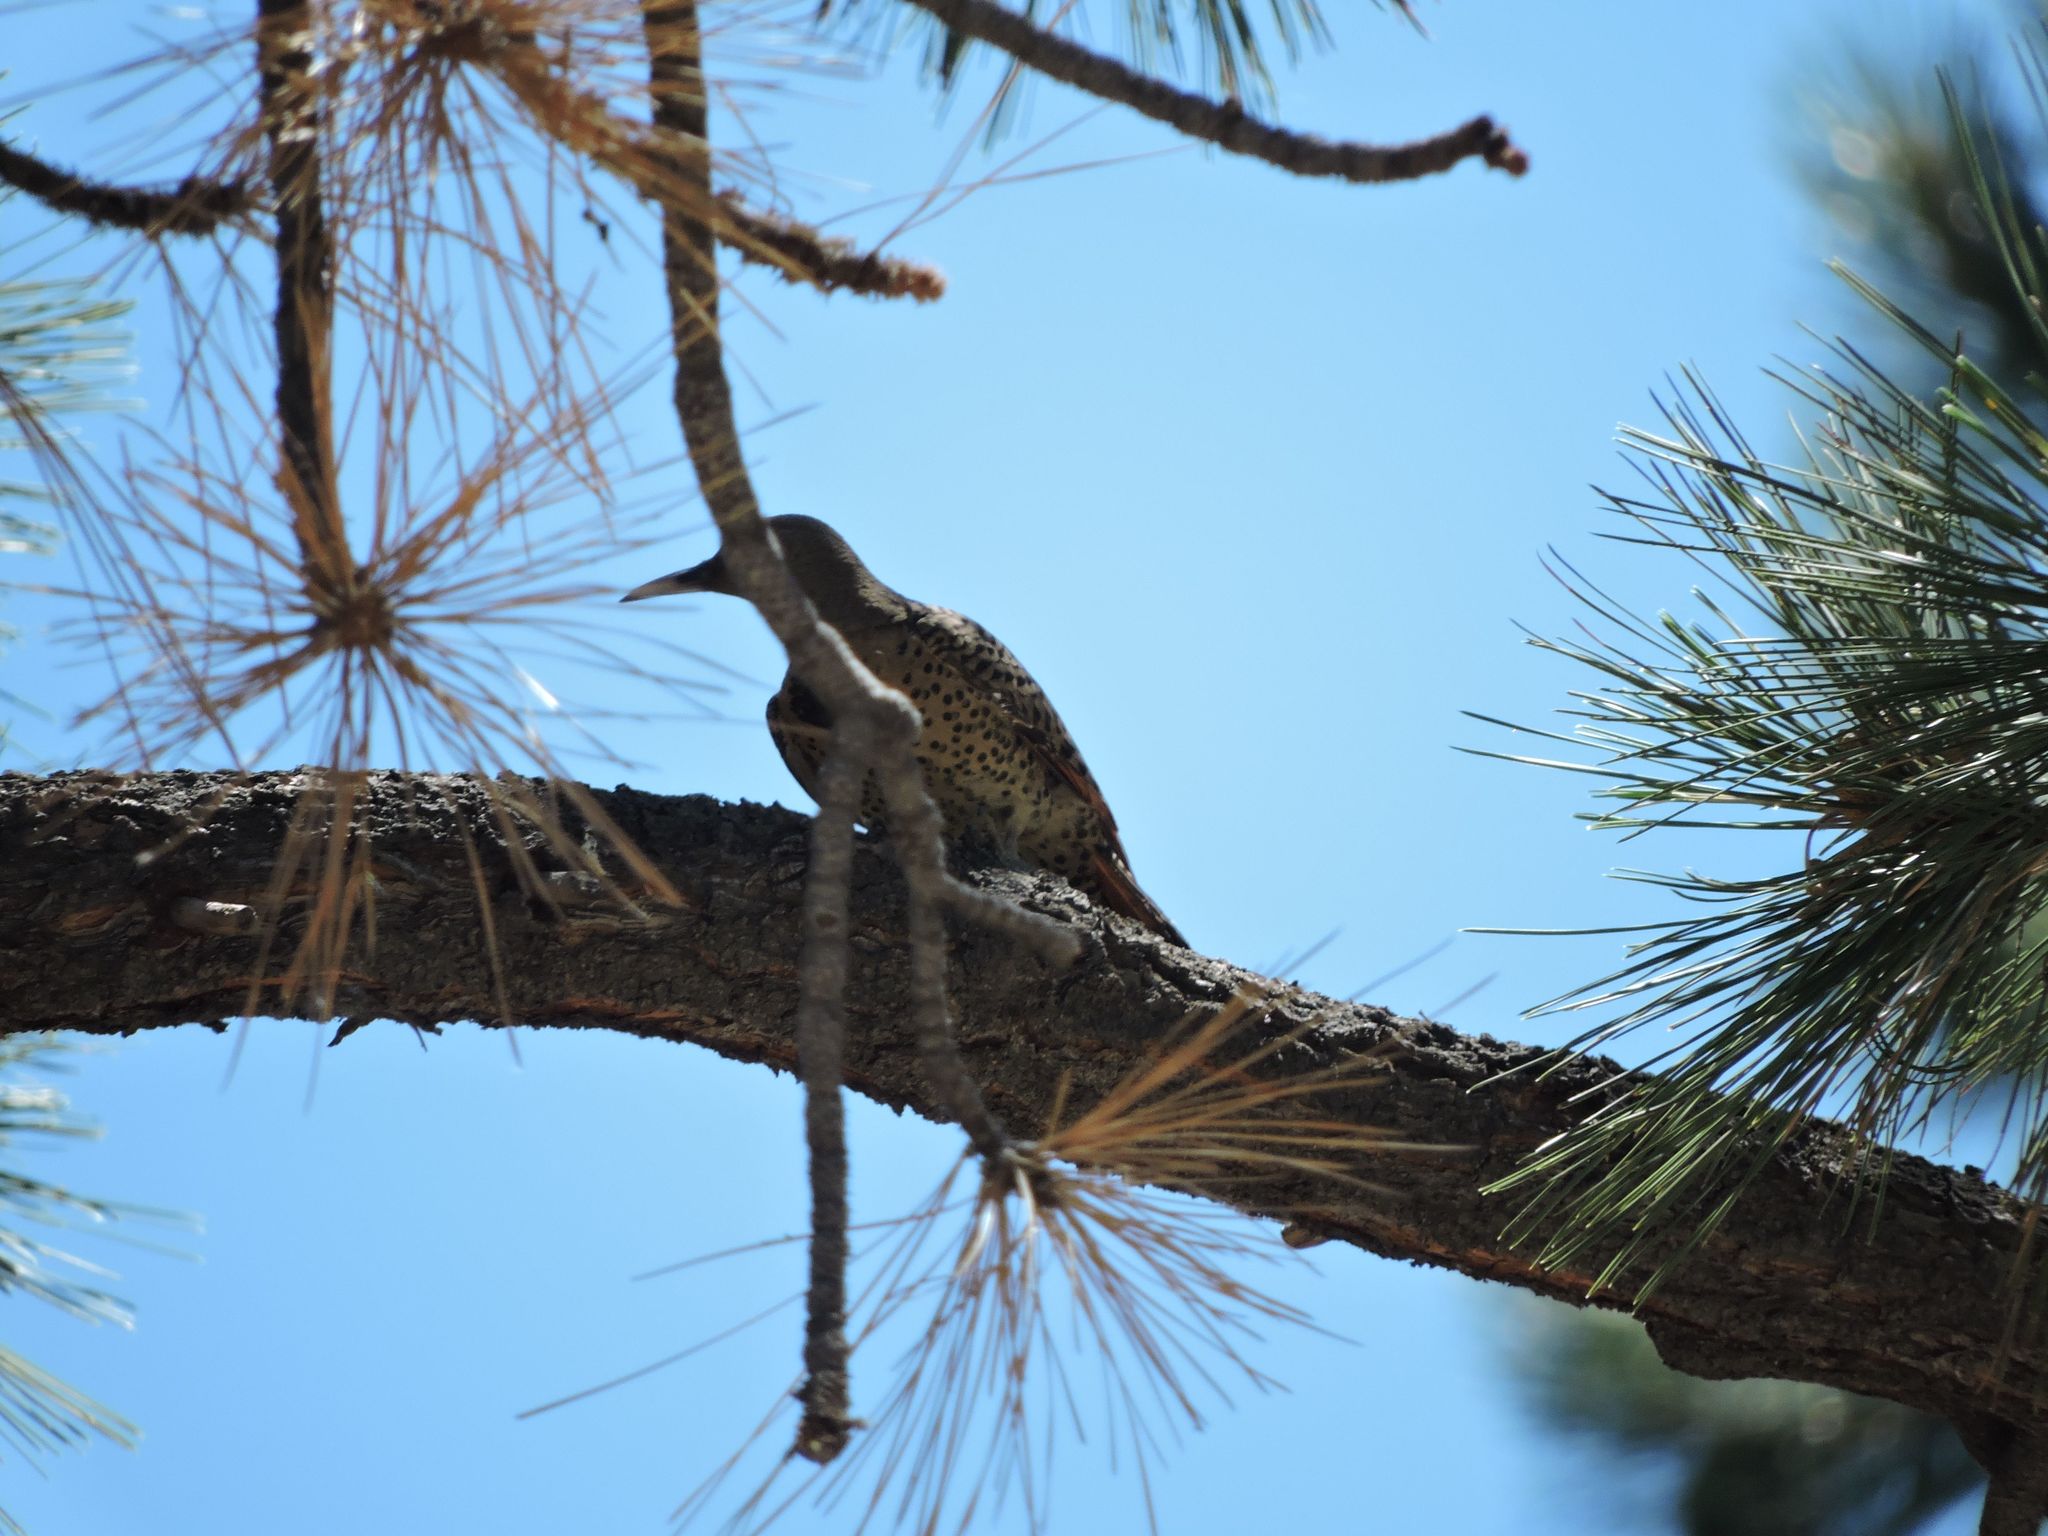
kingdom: Animalia
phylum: Chordata
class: Aves
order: Piciformes
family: Picidae
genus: Colaptes
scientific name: Colaptes auratus
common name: Northern flicker
